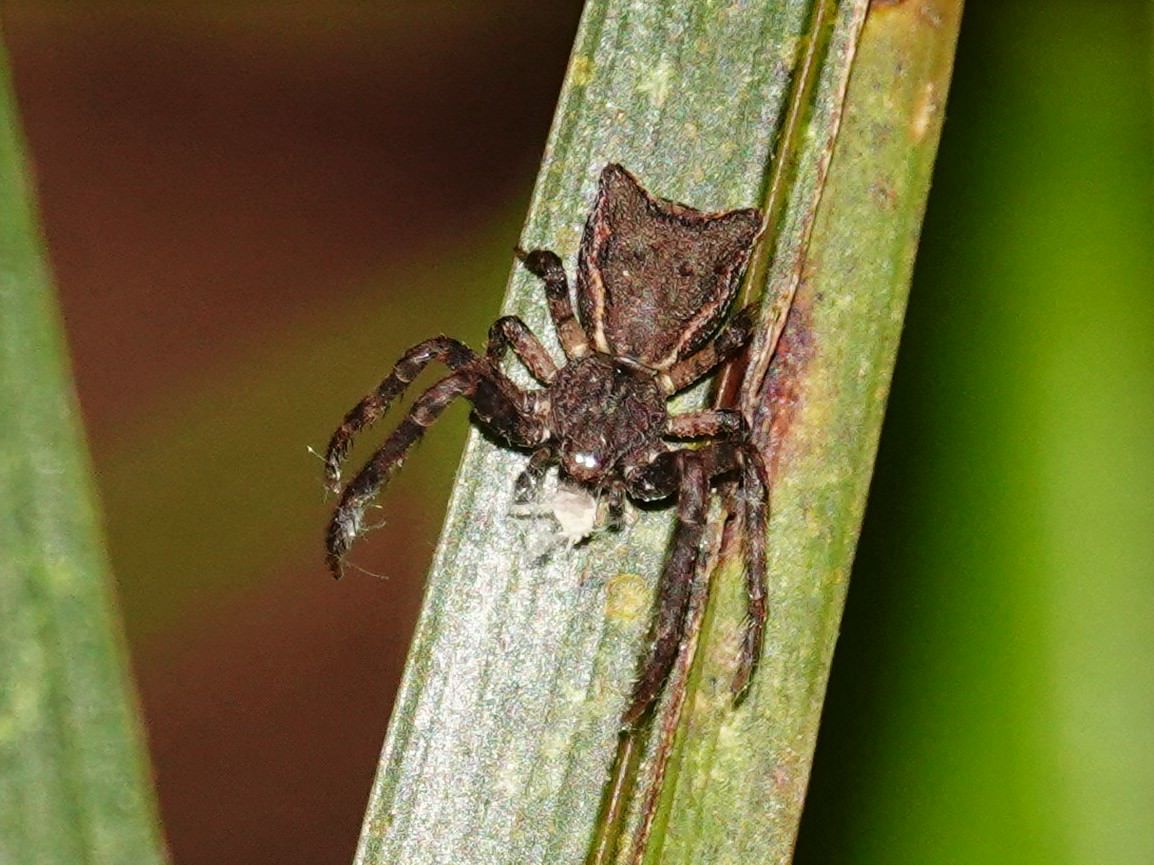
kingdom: Animalia
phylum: Arthropoda
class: Arachnida
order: Araneae
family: Thomisidae
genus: Sidymella
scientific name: Sidymella angularis
